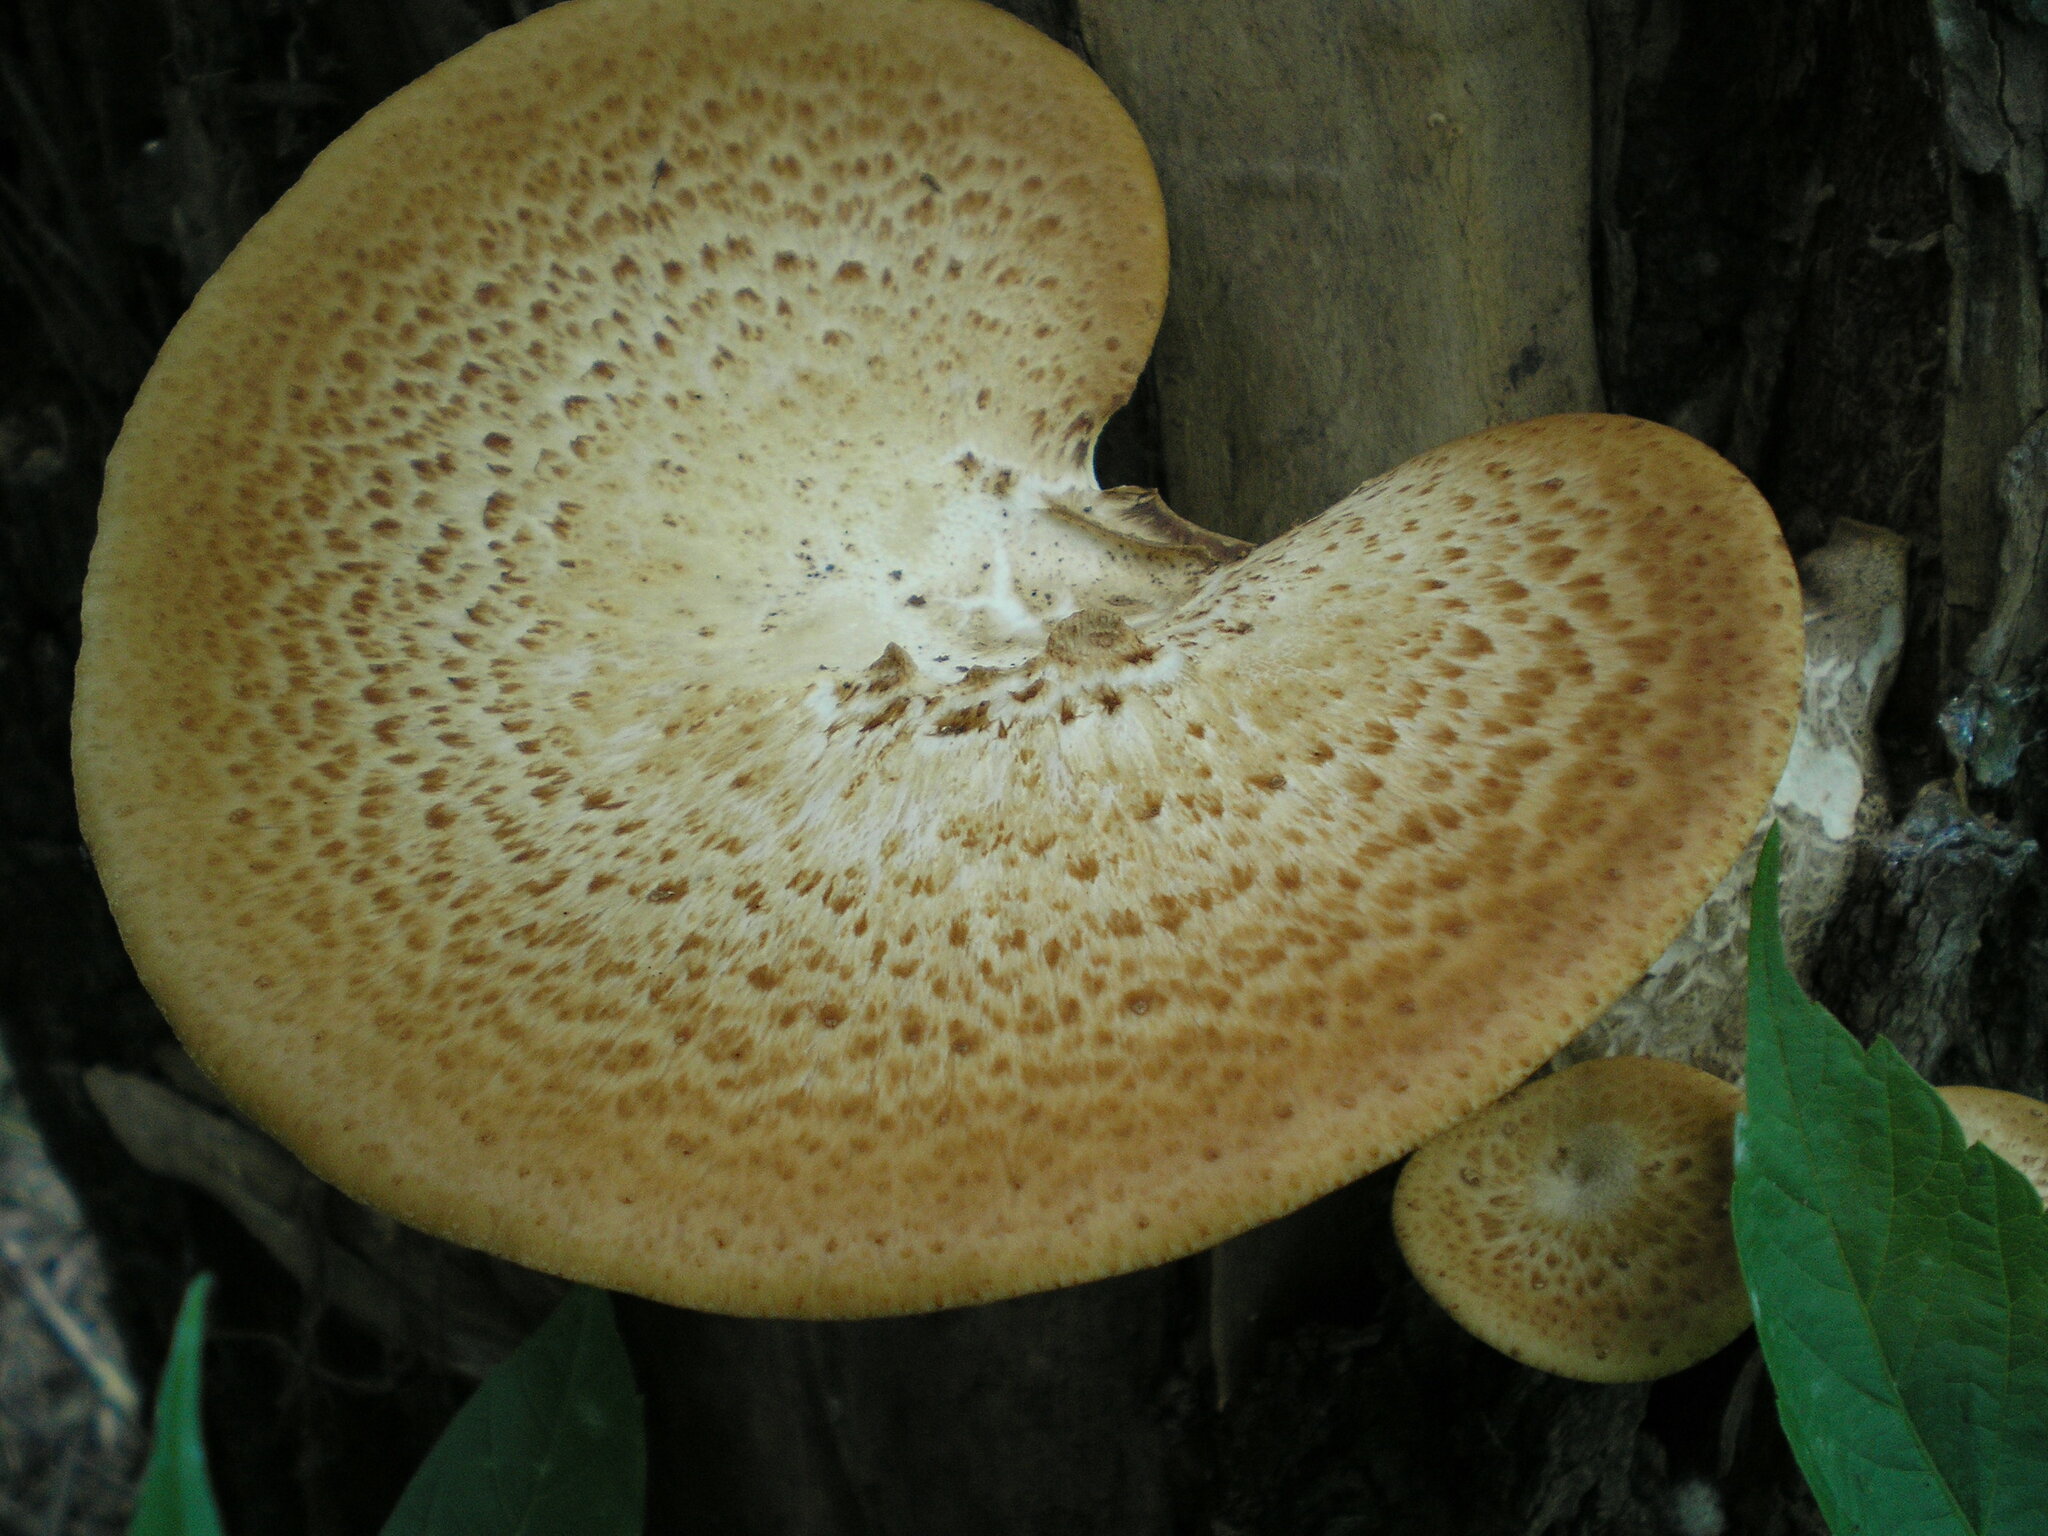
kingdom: Fungi
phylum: Basidiomycota
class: Agaricomycetes
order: Polyporales
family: Polyporaceae
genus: Cerioporus
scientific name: Cerioporus squamosus
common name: Dryad's saddle
